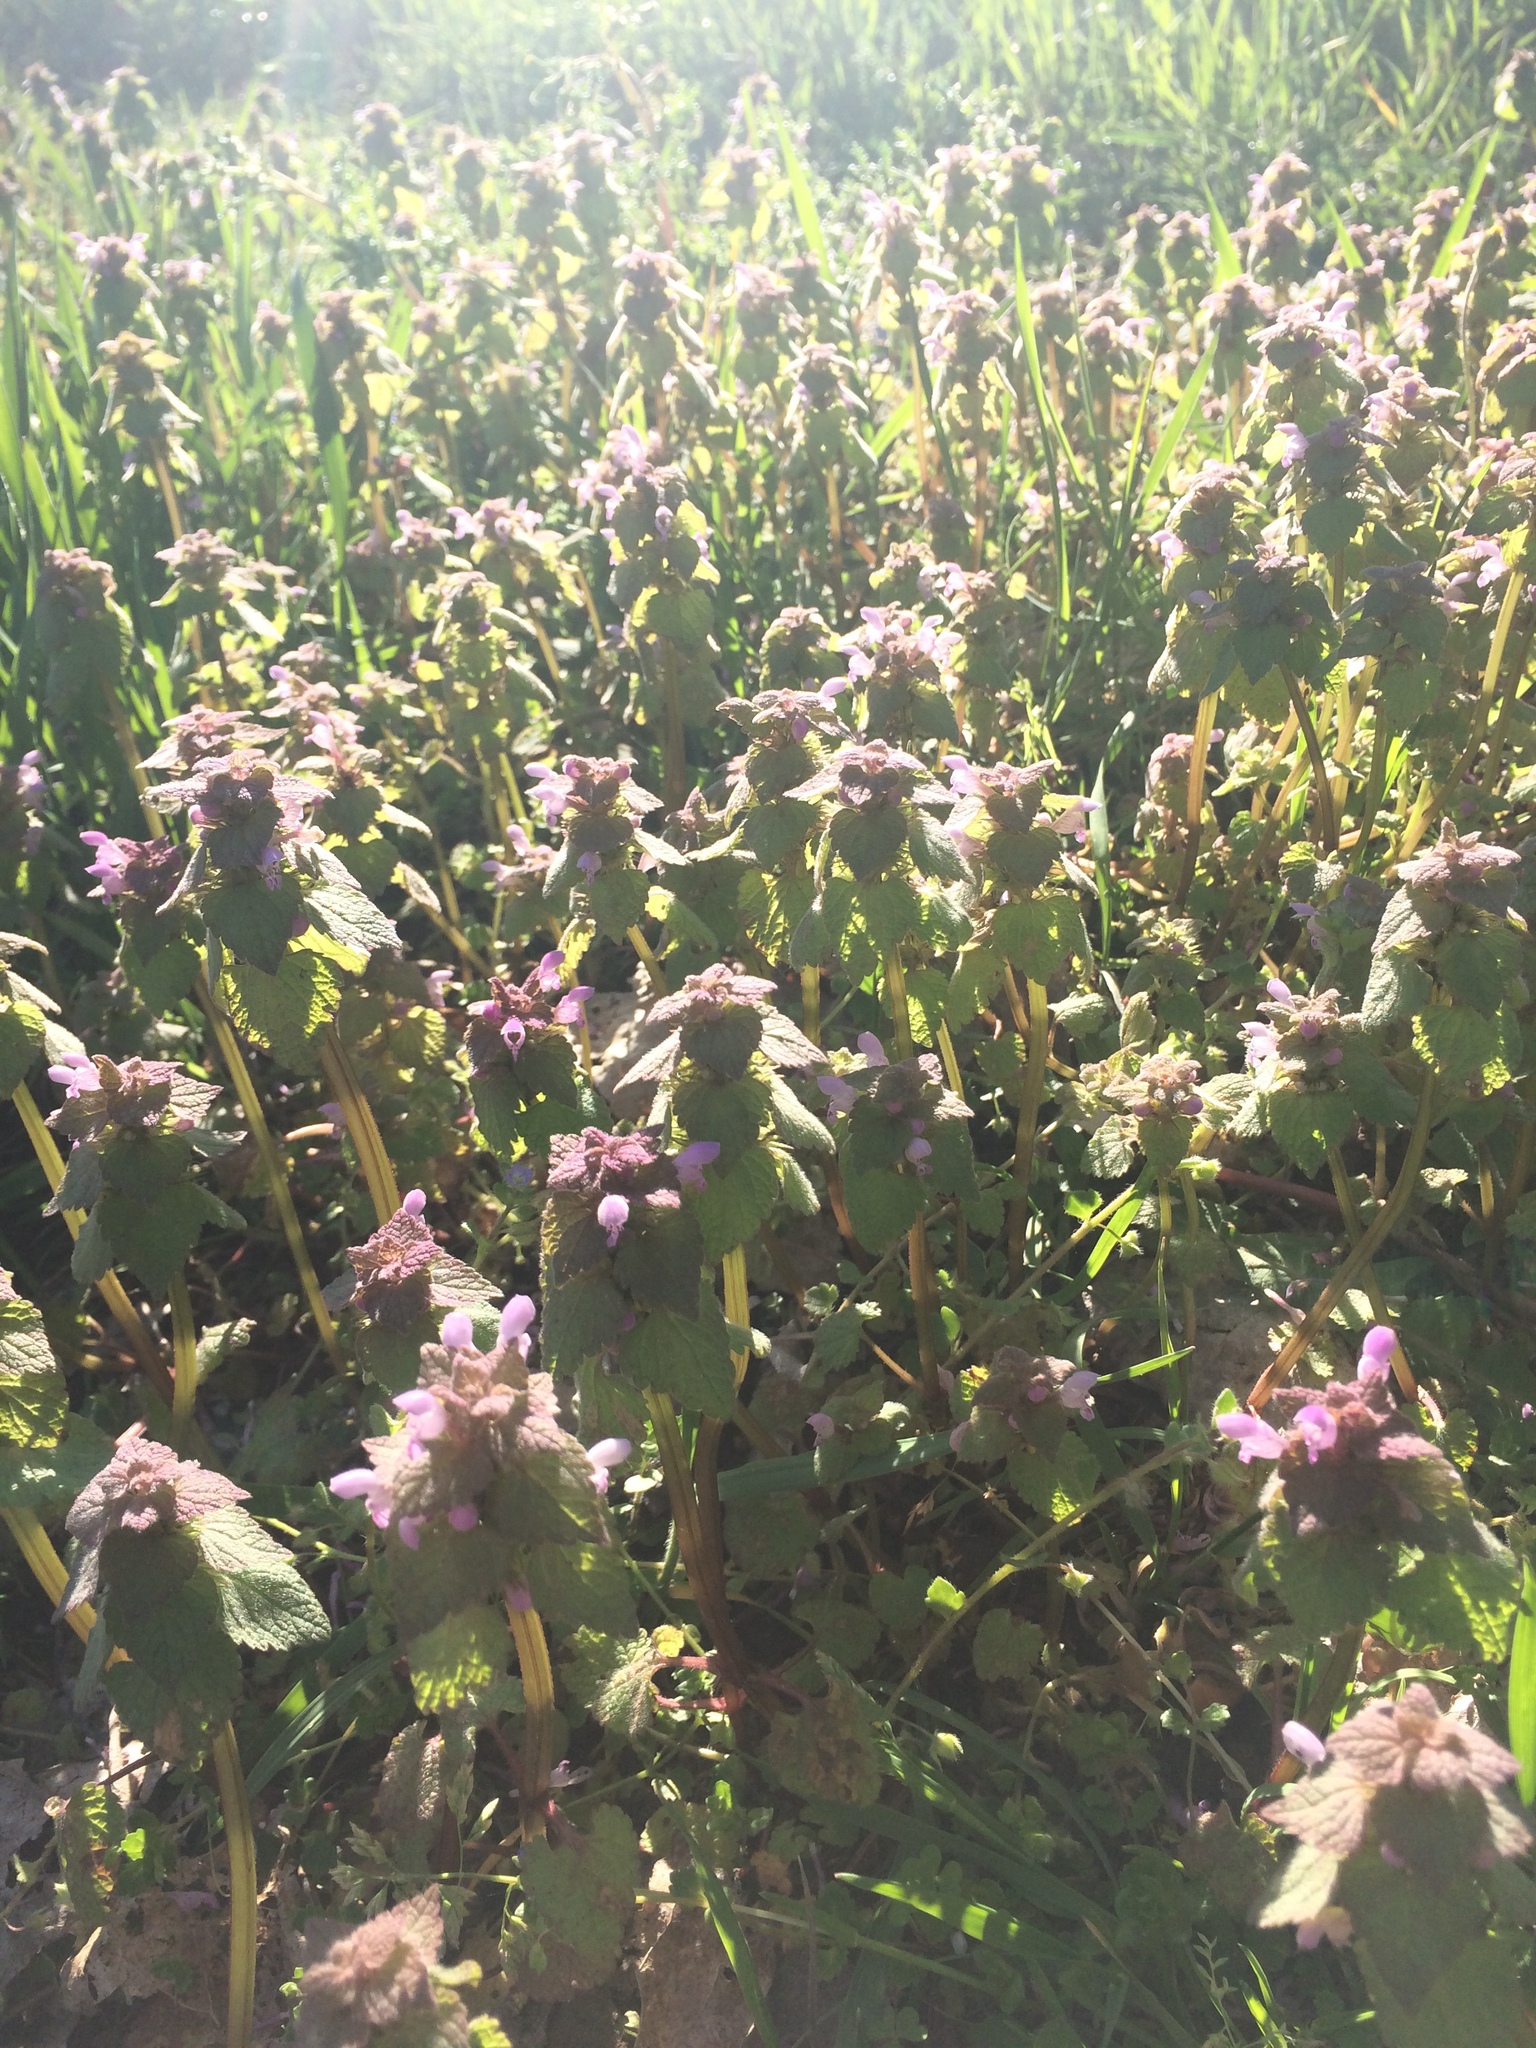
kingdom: Plantae
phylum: Tracheophyta
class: Magnoliopsida
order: Lamiales
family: Lamiaceae
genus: Lamium
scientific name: Lamium purpureum
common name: Red dead-nettle
